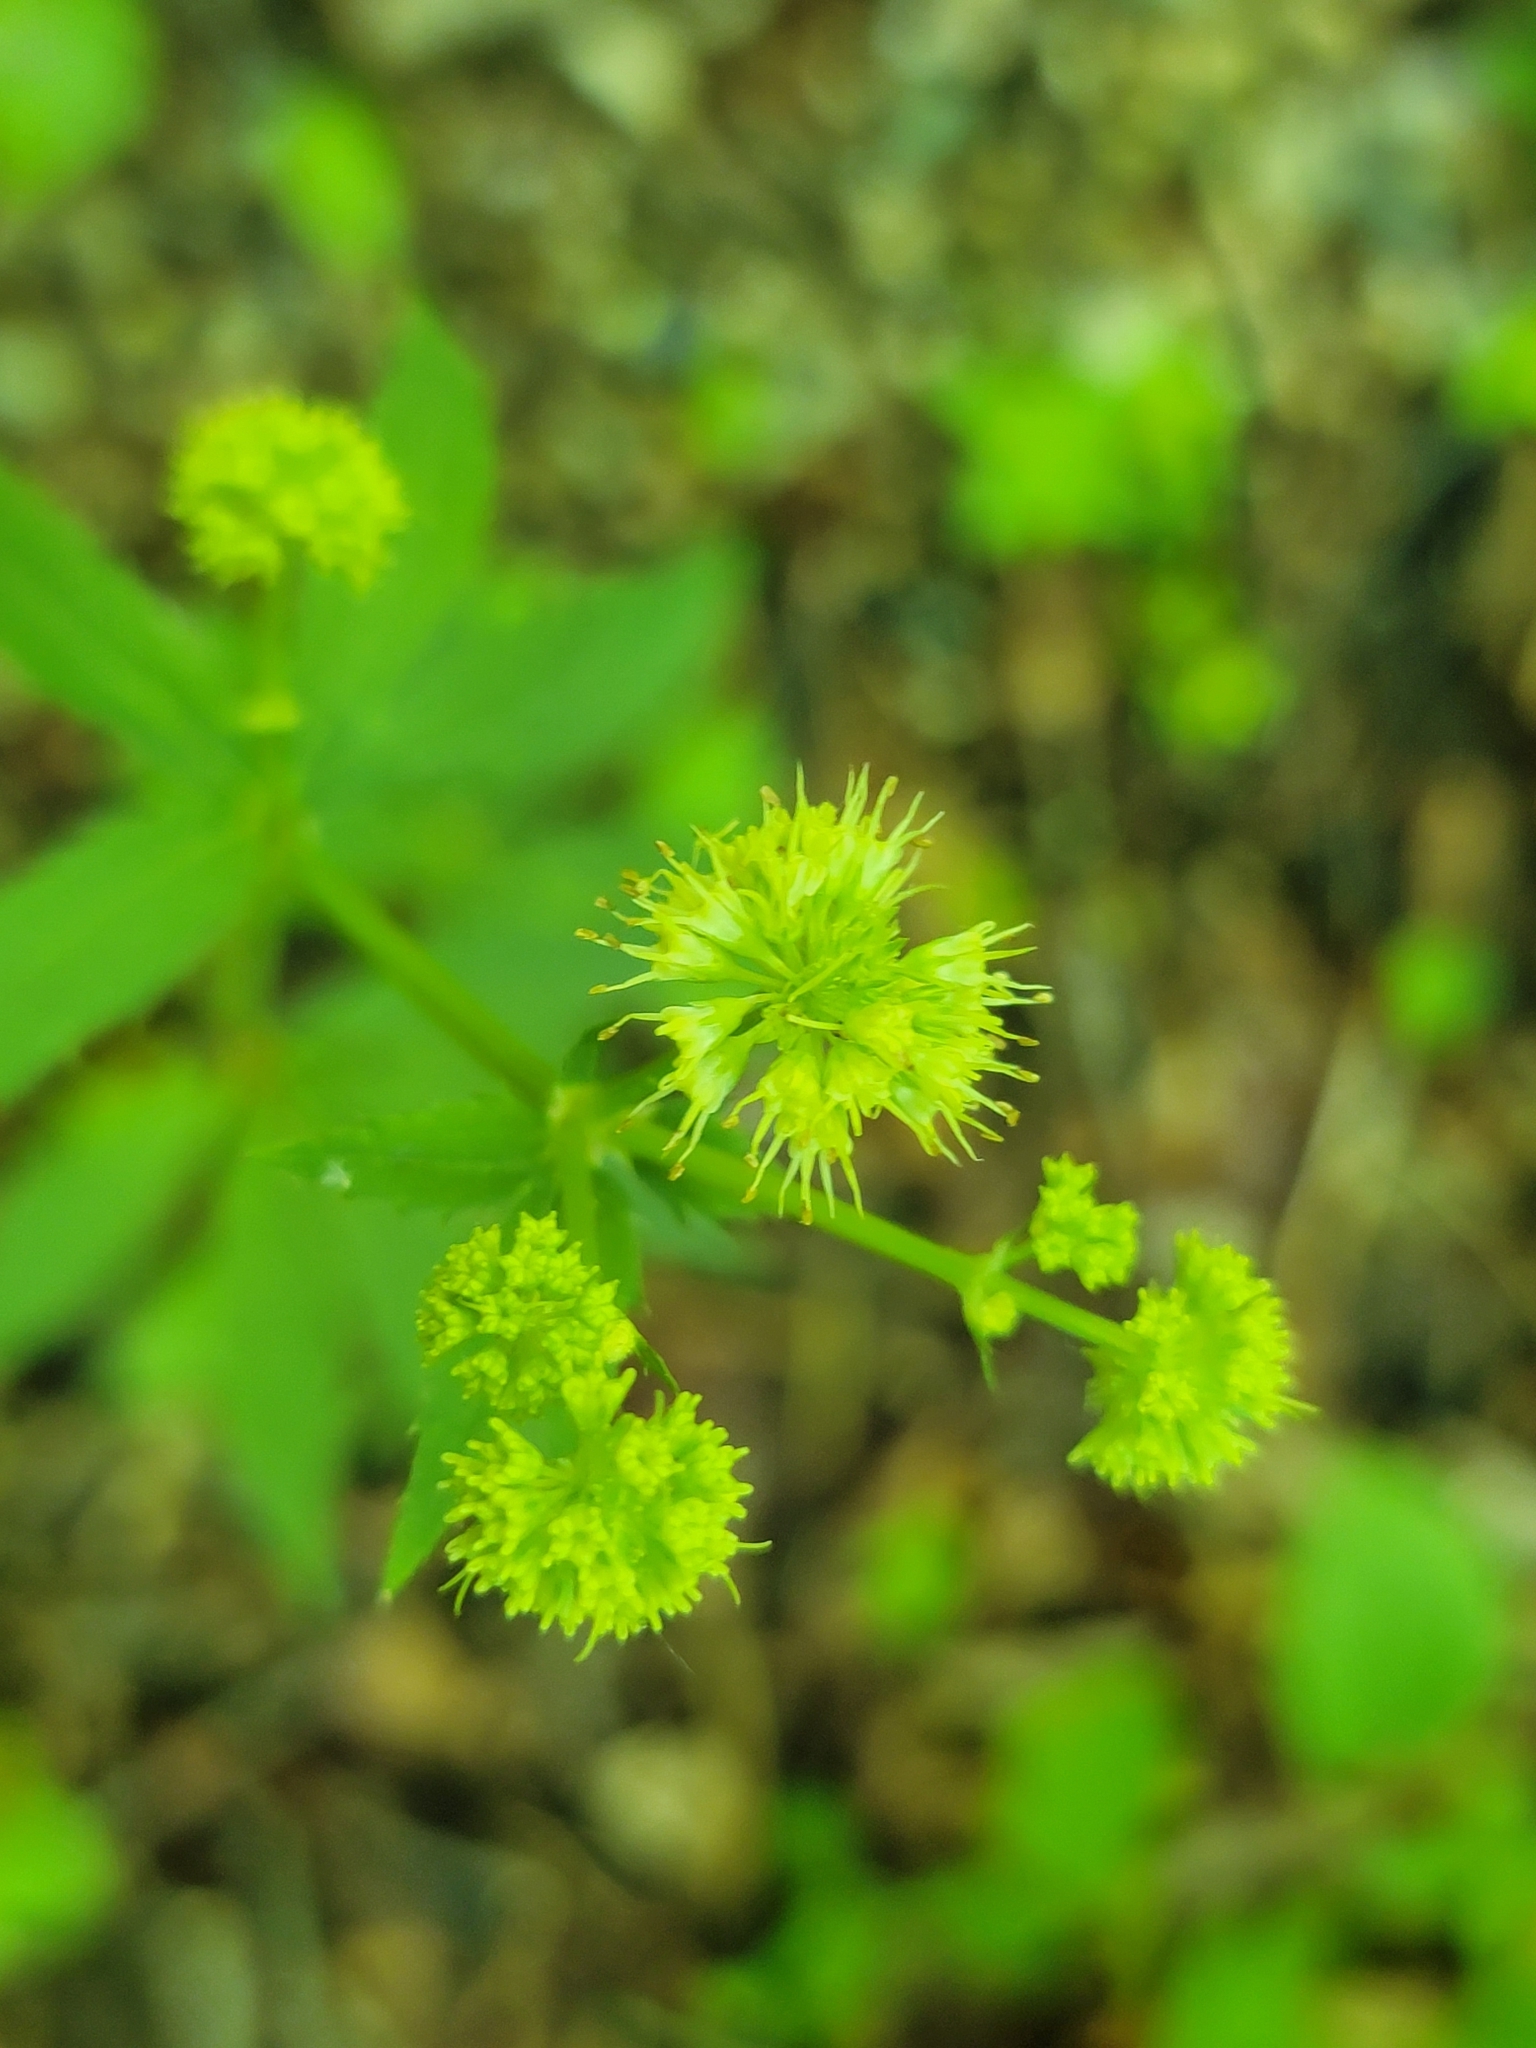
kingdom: Plantae
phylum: Tracheophyta
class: Magnoliopsida
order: Apiales
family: Apiaceae
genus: Sanicula
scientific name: Sanicula marilandica
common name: Black snakeroot
